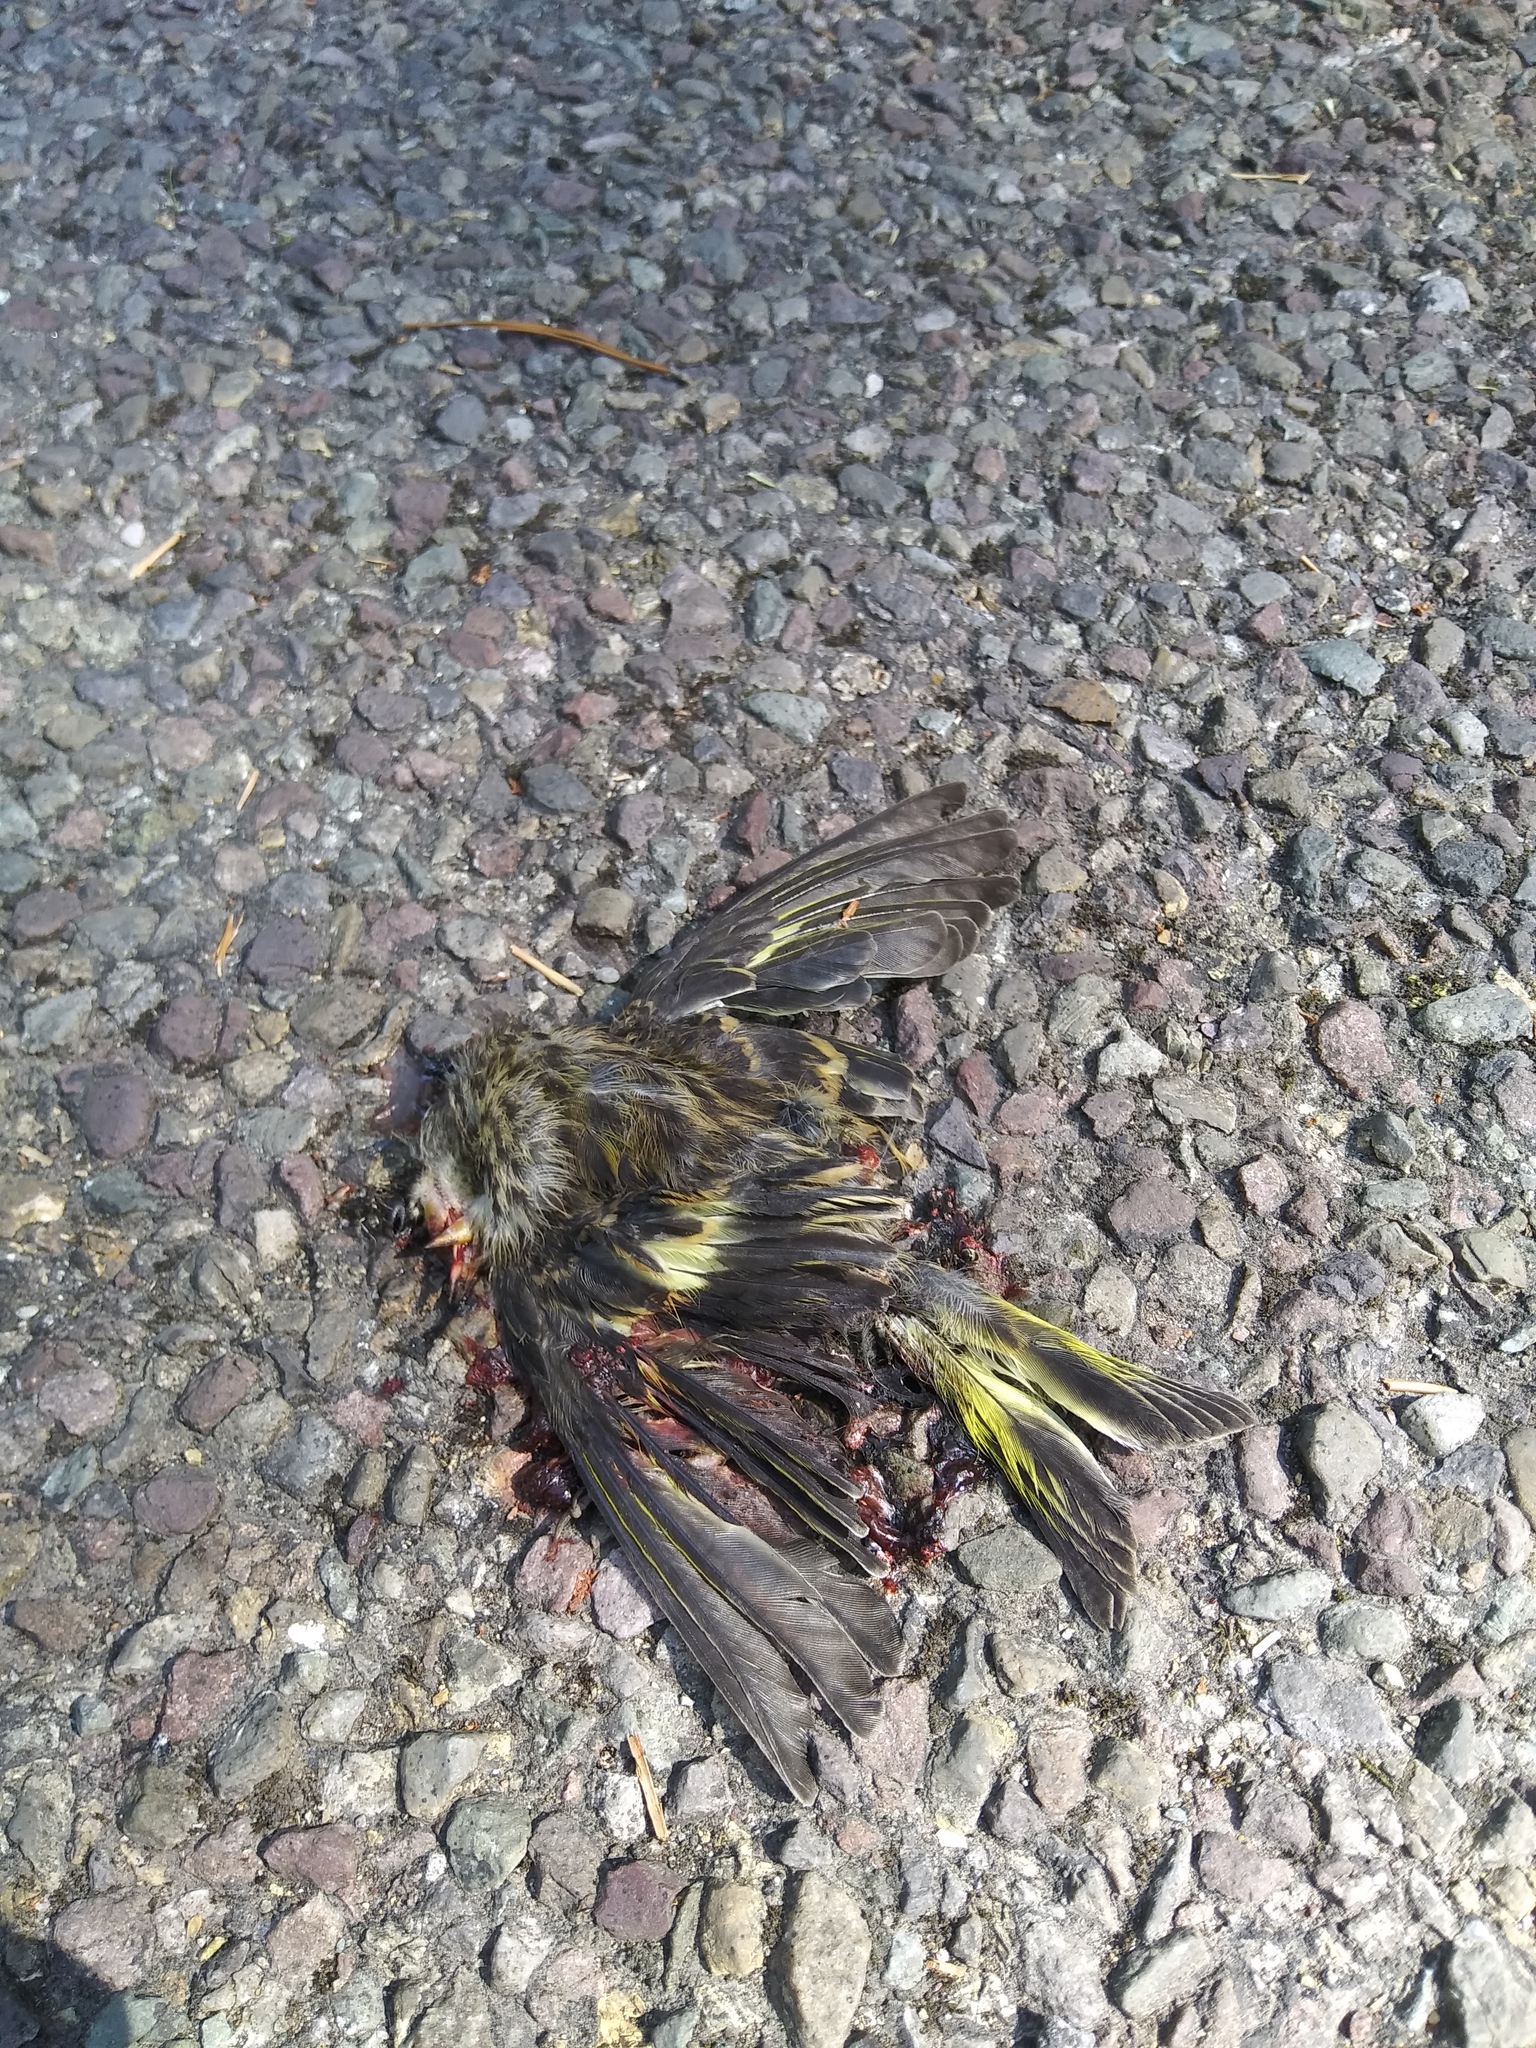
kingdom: Animalia
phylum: Chordata
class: Aves
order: Passeriformes
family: Fringillidae
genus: Spinus
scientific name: Spinus pinus
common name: Pine siskin
